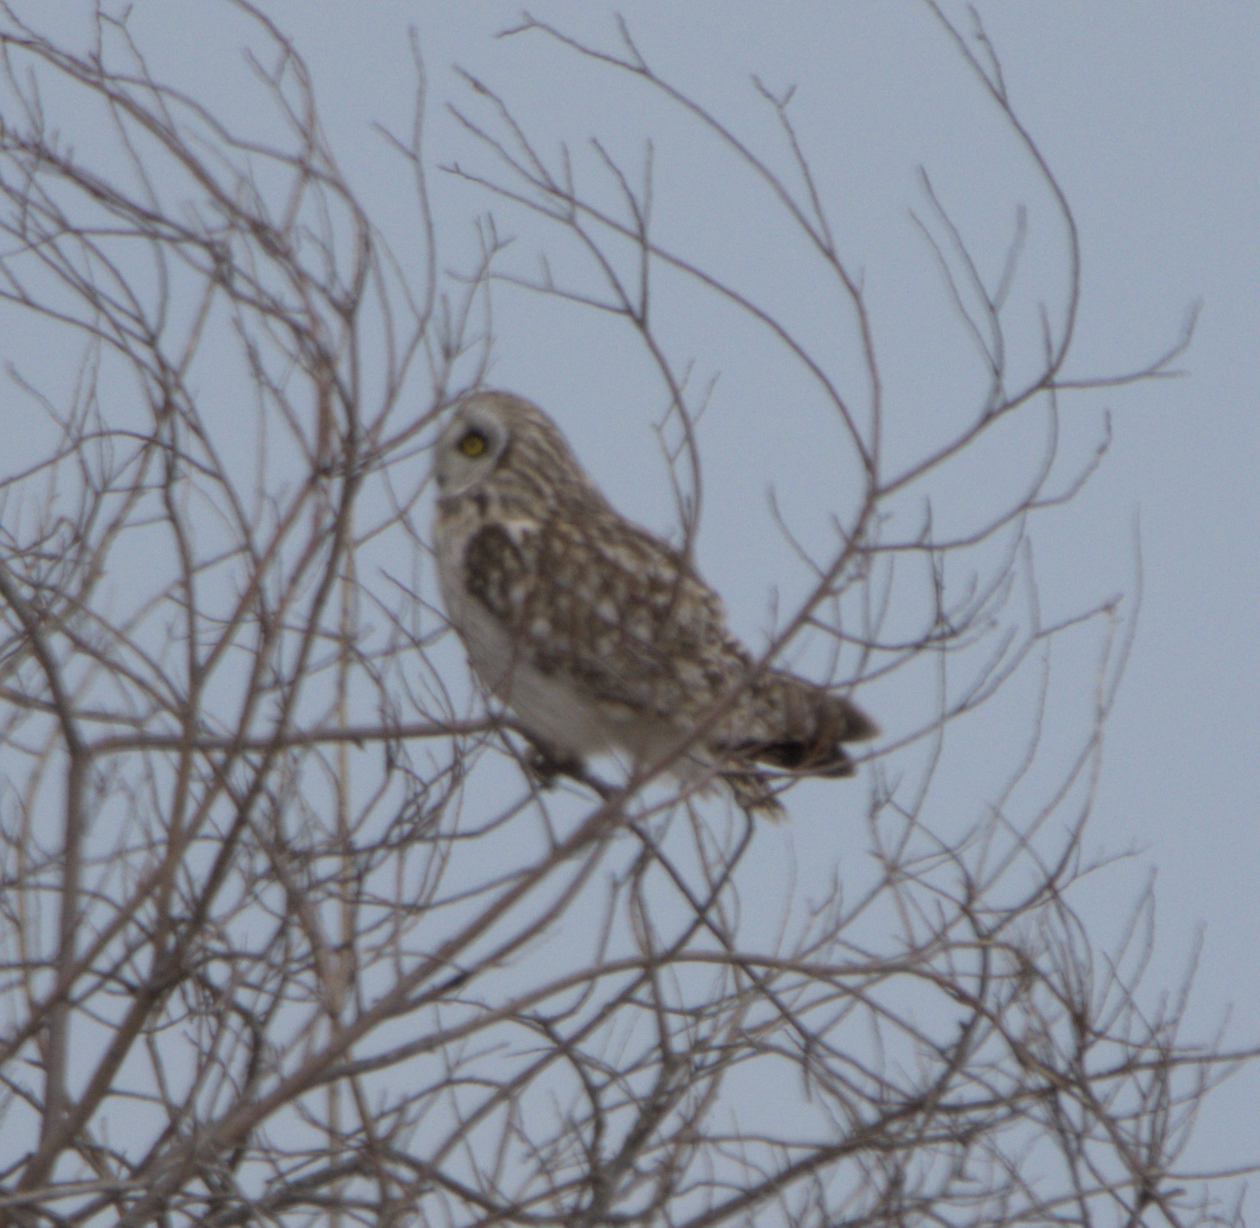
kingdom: Animalia
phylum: Chordata
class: Aves
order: Strigiformes
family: Strigidae
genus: Asio
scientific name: Asio flammeus
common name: Short-eared owl
